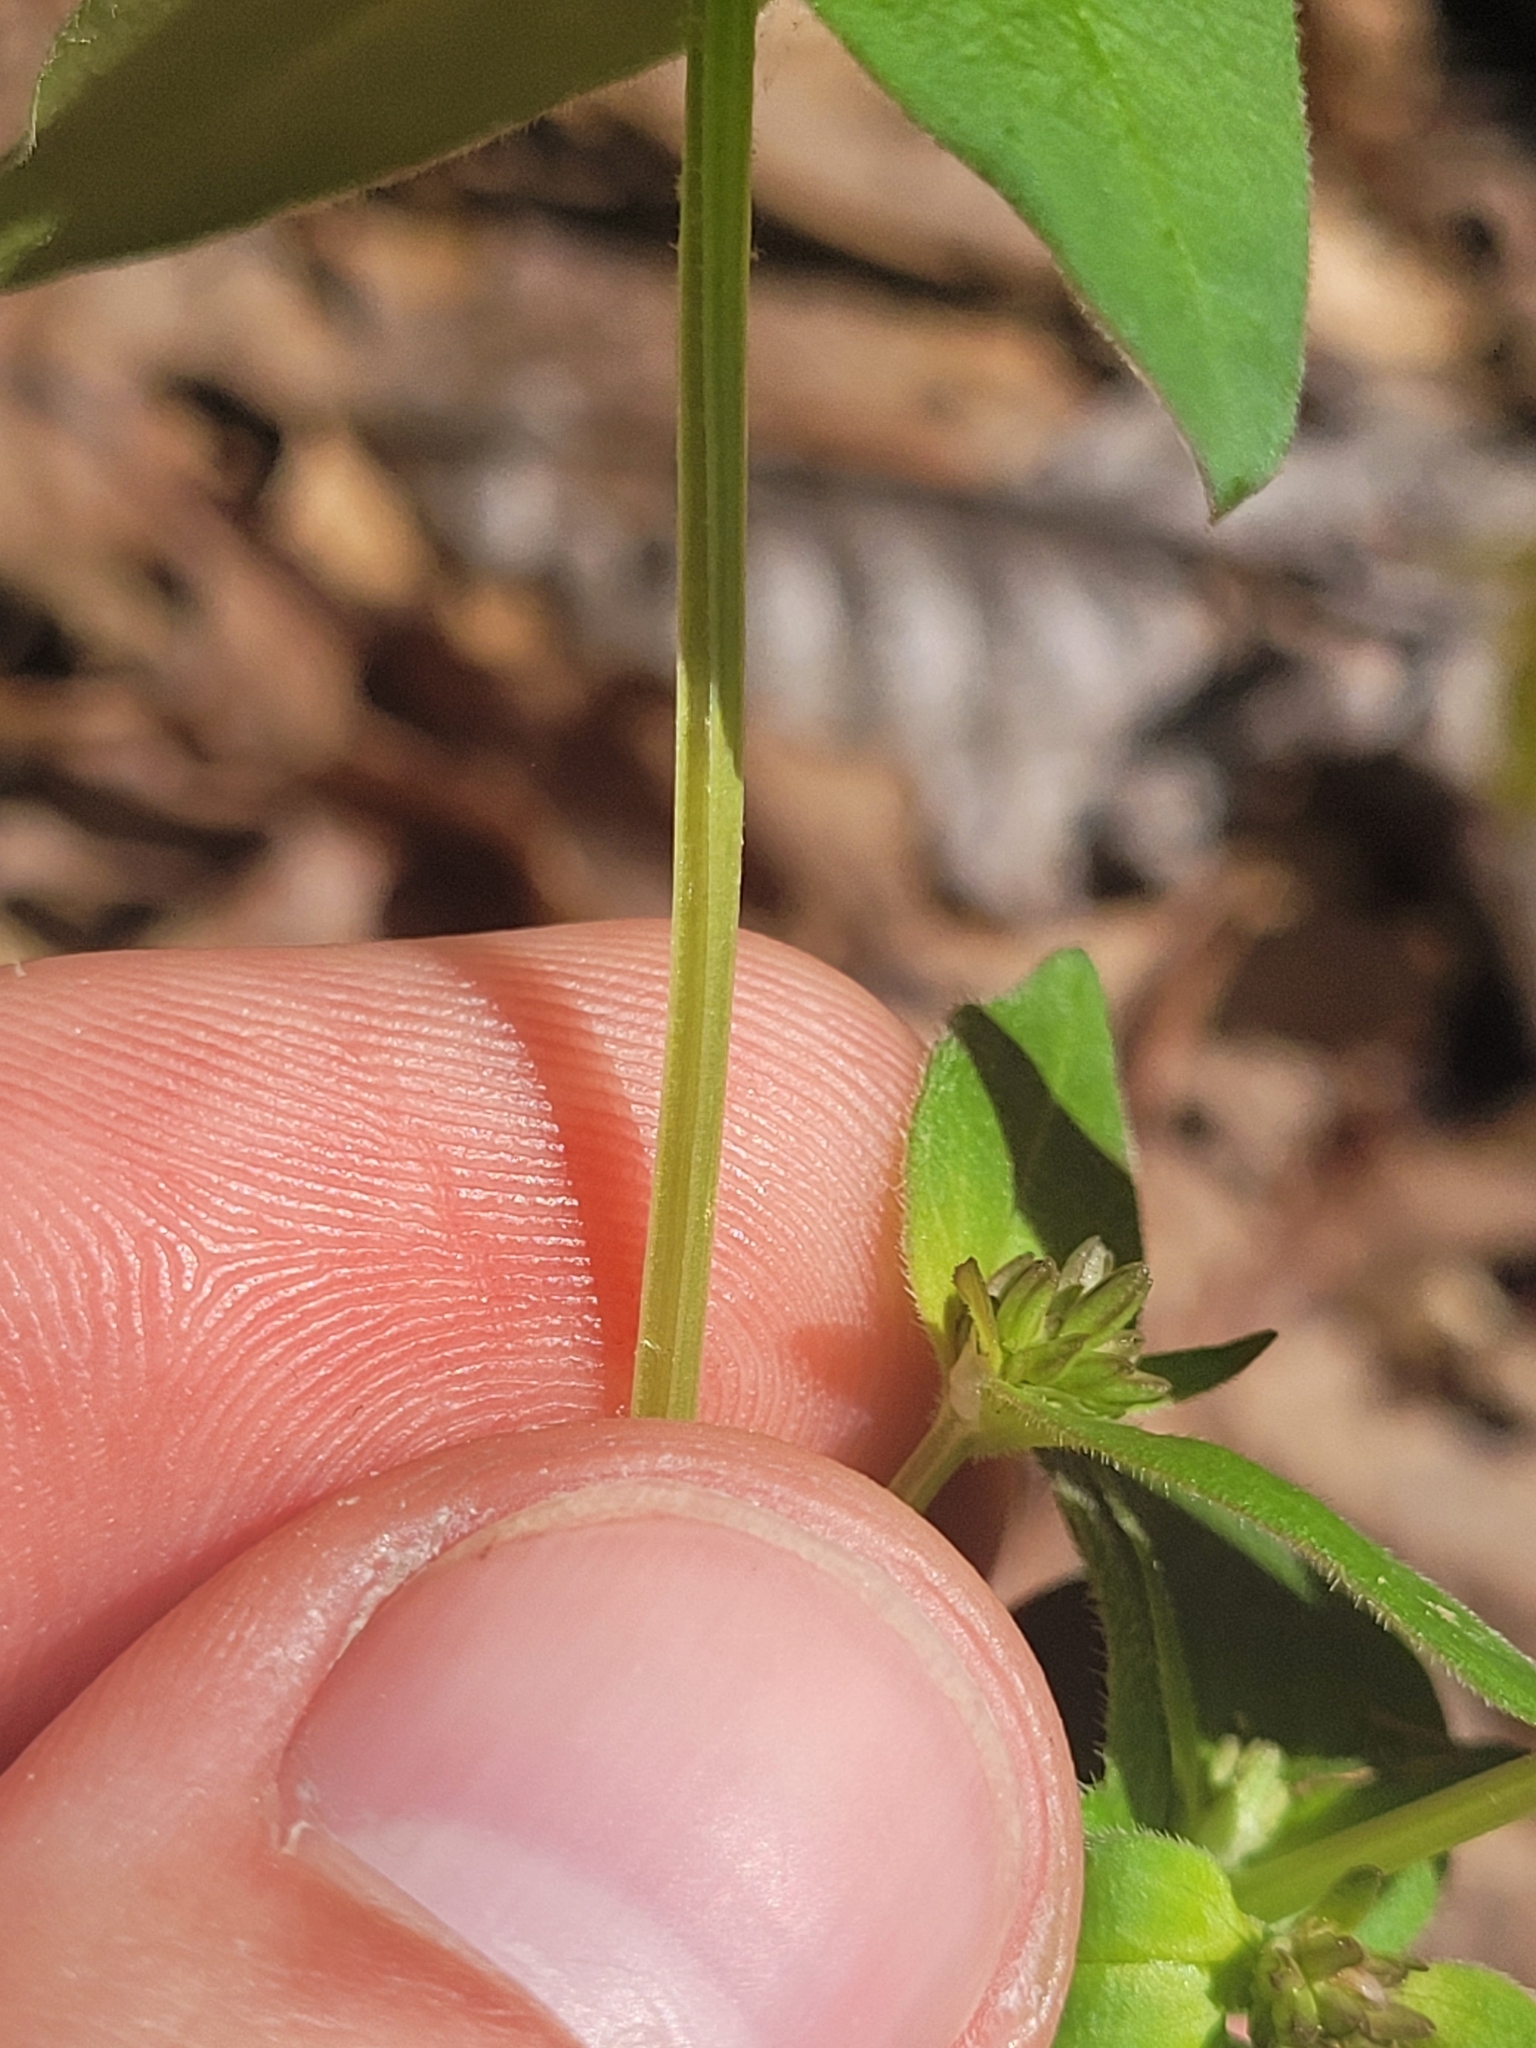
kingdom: Plantae
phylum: Tracheophyta
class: Magnoliopsida
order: Gentianales
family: Rubiaceae
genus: Houstonia
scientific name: Houstonia purpurea
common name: Summer bluet
